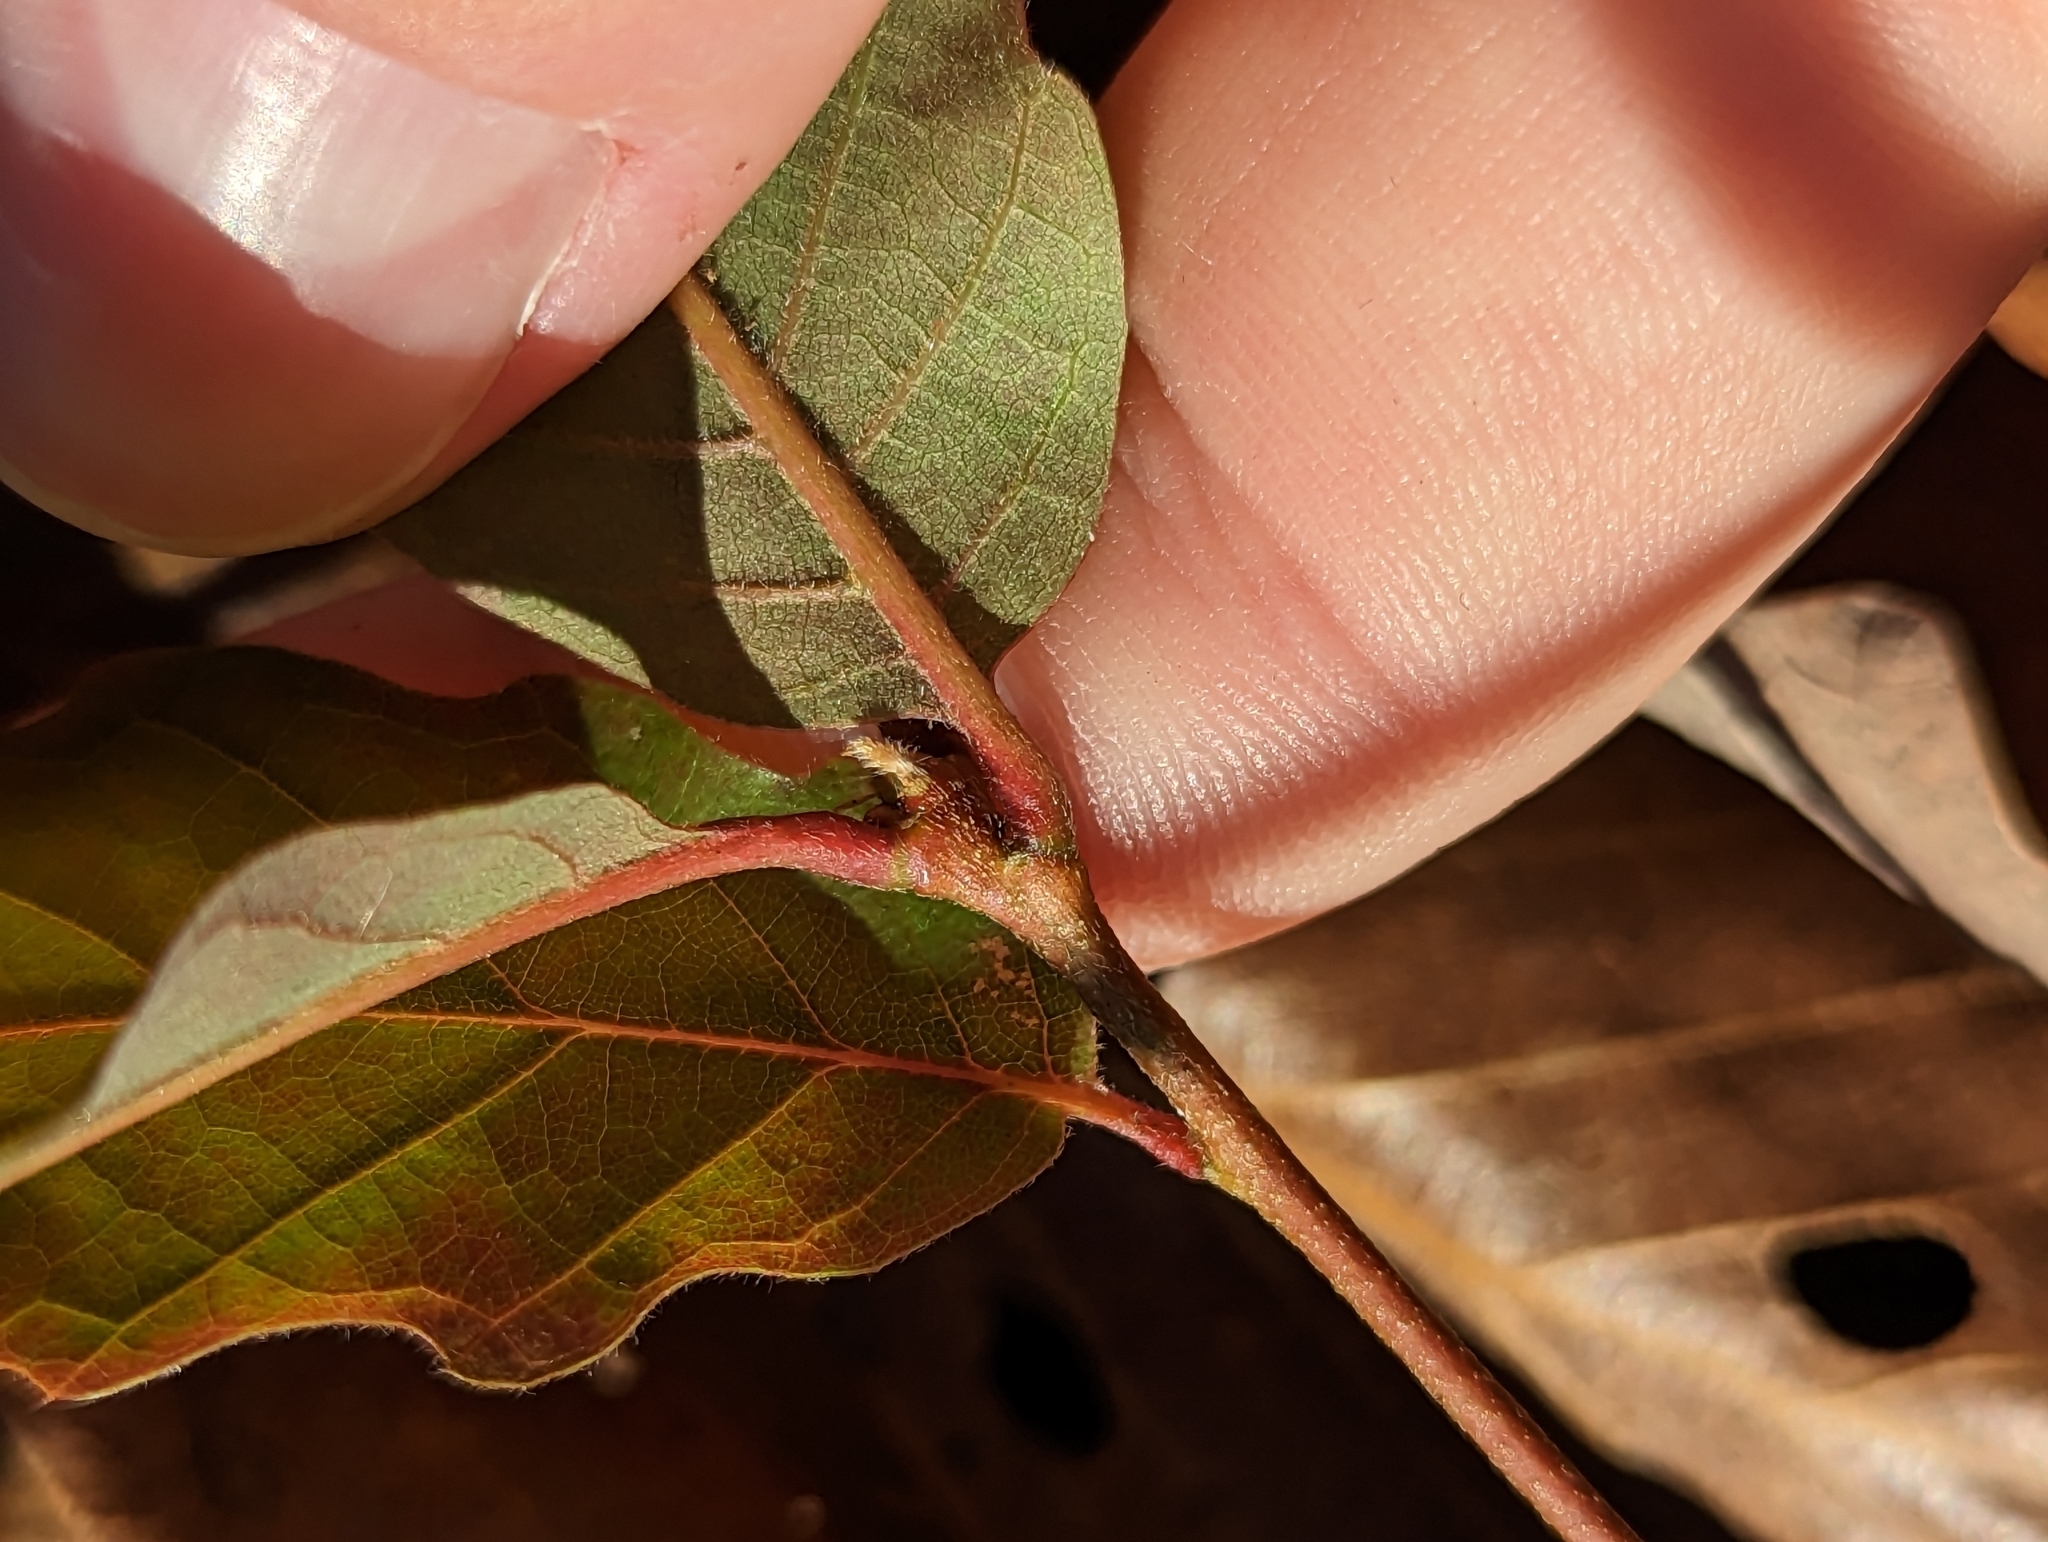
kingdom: Plantae
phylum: Tracheophyta
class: Magnoliopsida
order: Fagales
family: Fagaceae
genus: Quercus
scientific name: Quercus montana
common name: Chestnut oak
